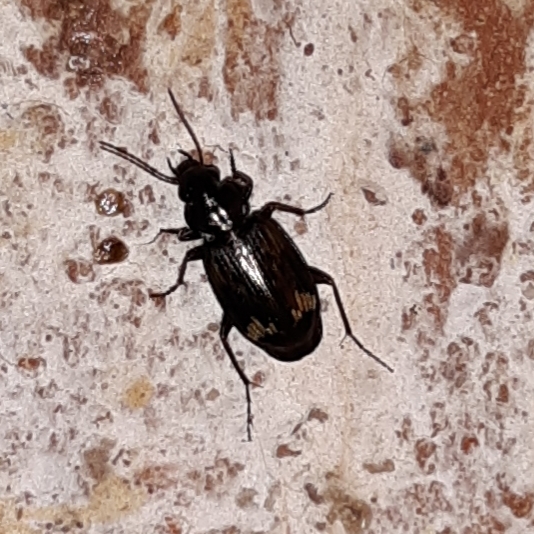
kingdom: Animalia
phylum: Arthropoda
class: Insecta
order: Coleoptera
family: Carabidae
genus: Tetragonoderus
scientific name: Tetragonoderus intersectus
